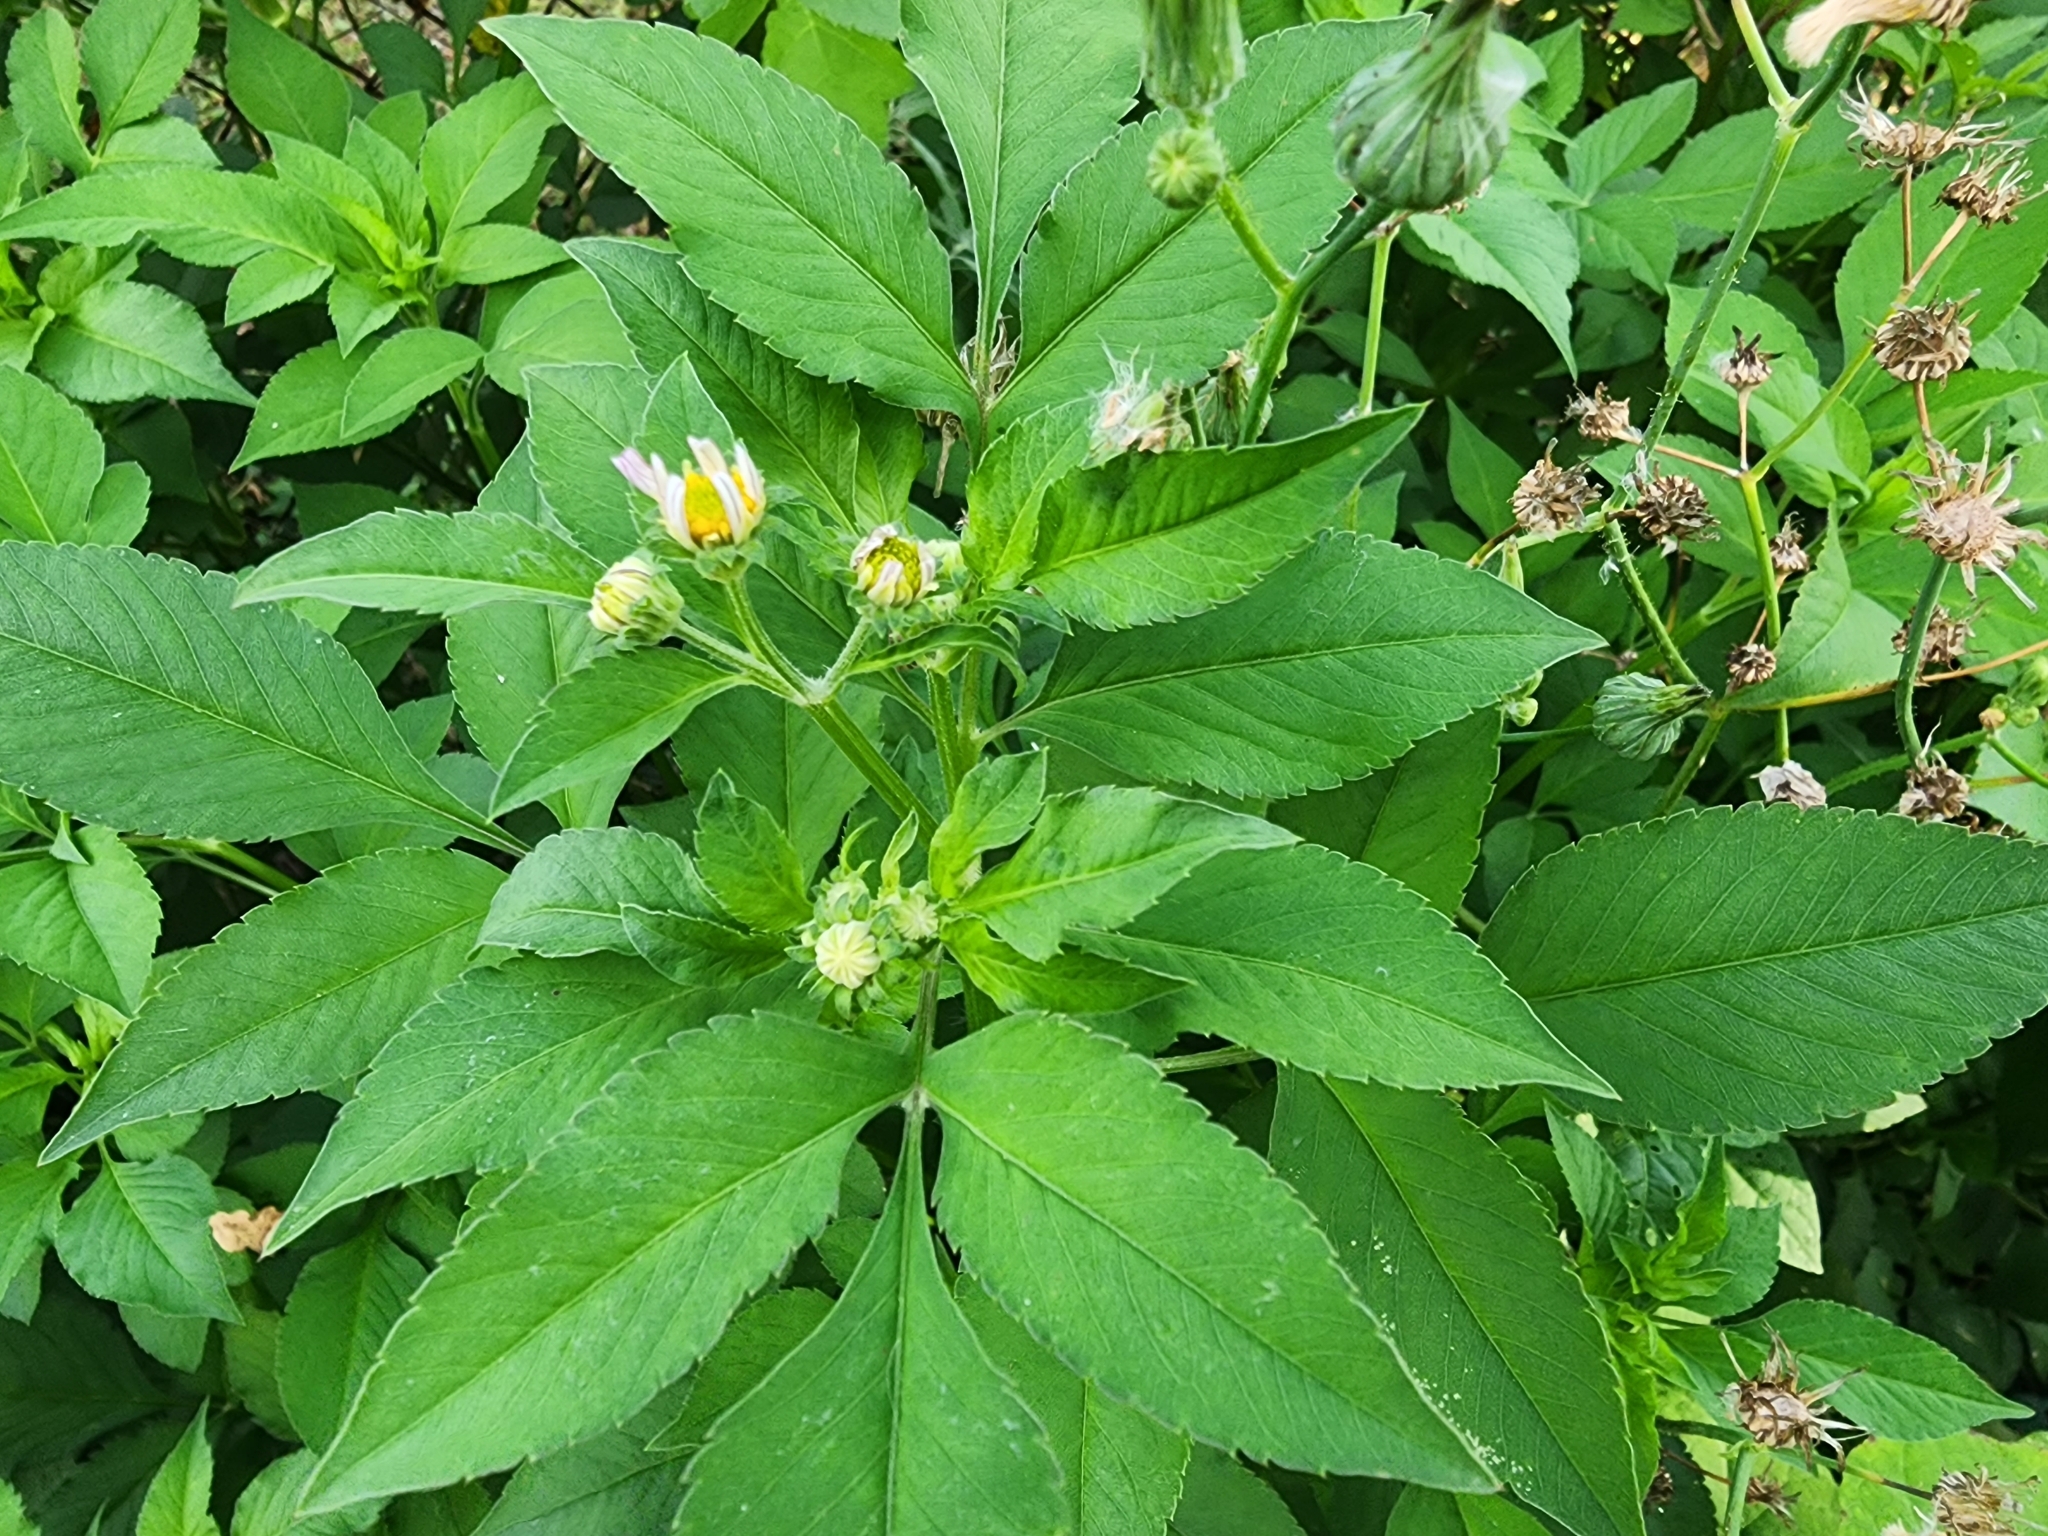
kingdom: Plantae
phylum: Tracheophyta
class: Magnoliopsida
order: Asterales
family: Asteraceae
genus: Bidens
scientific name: Bidens alba
